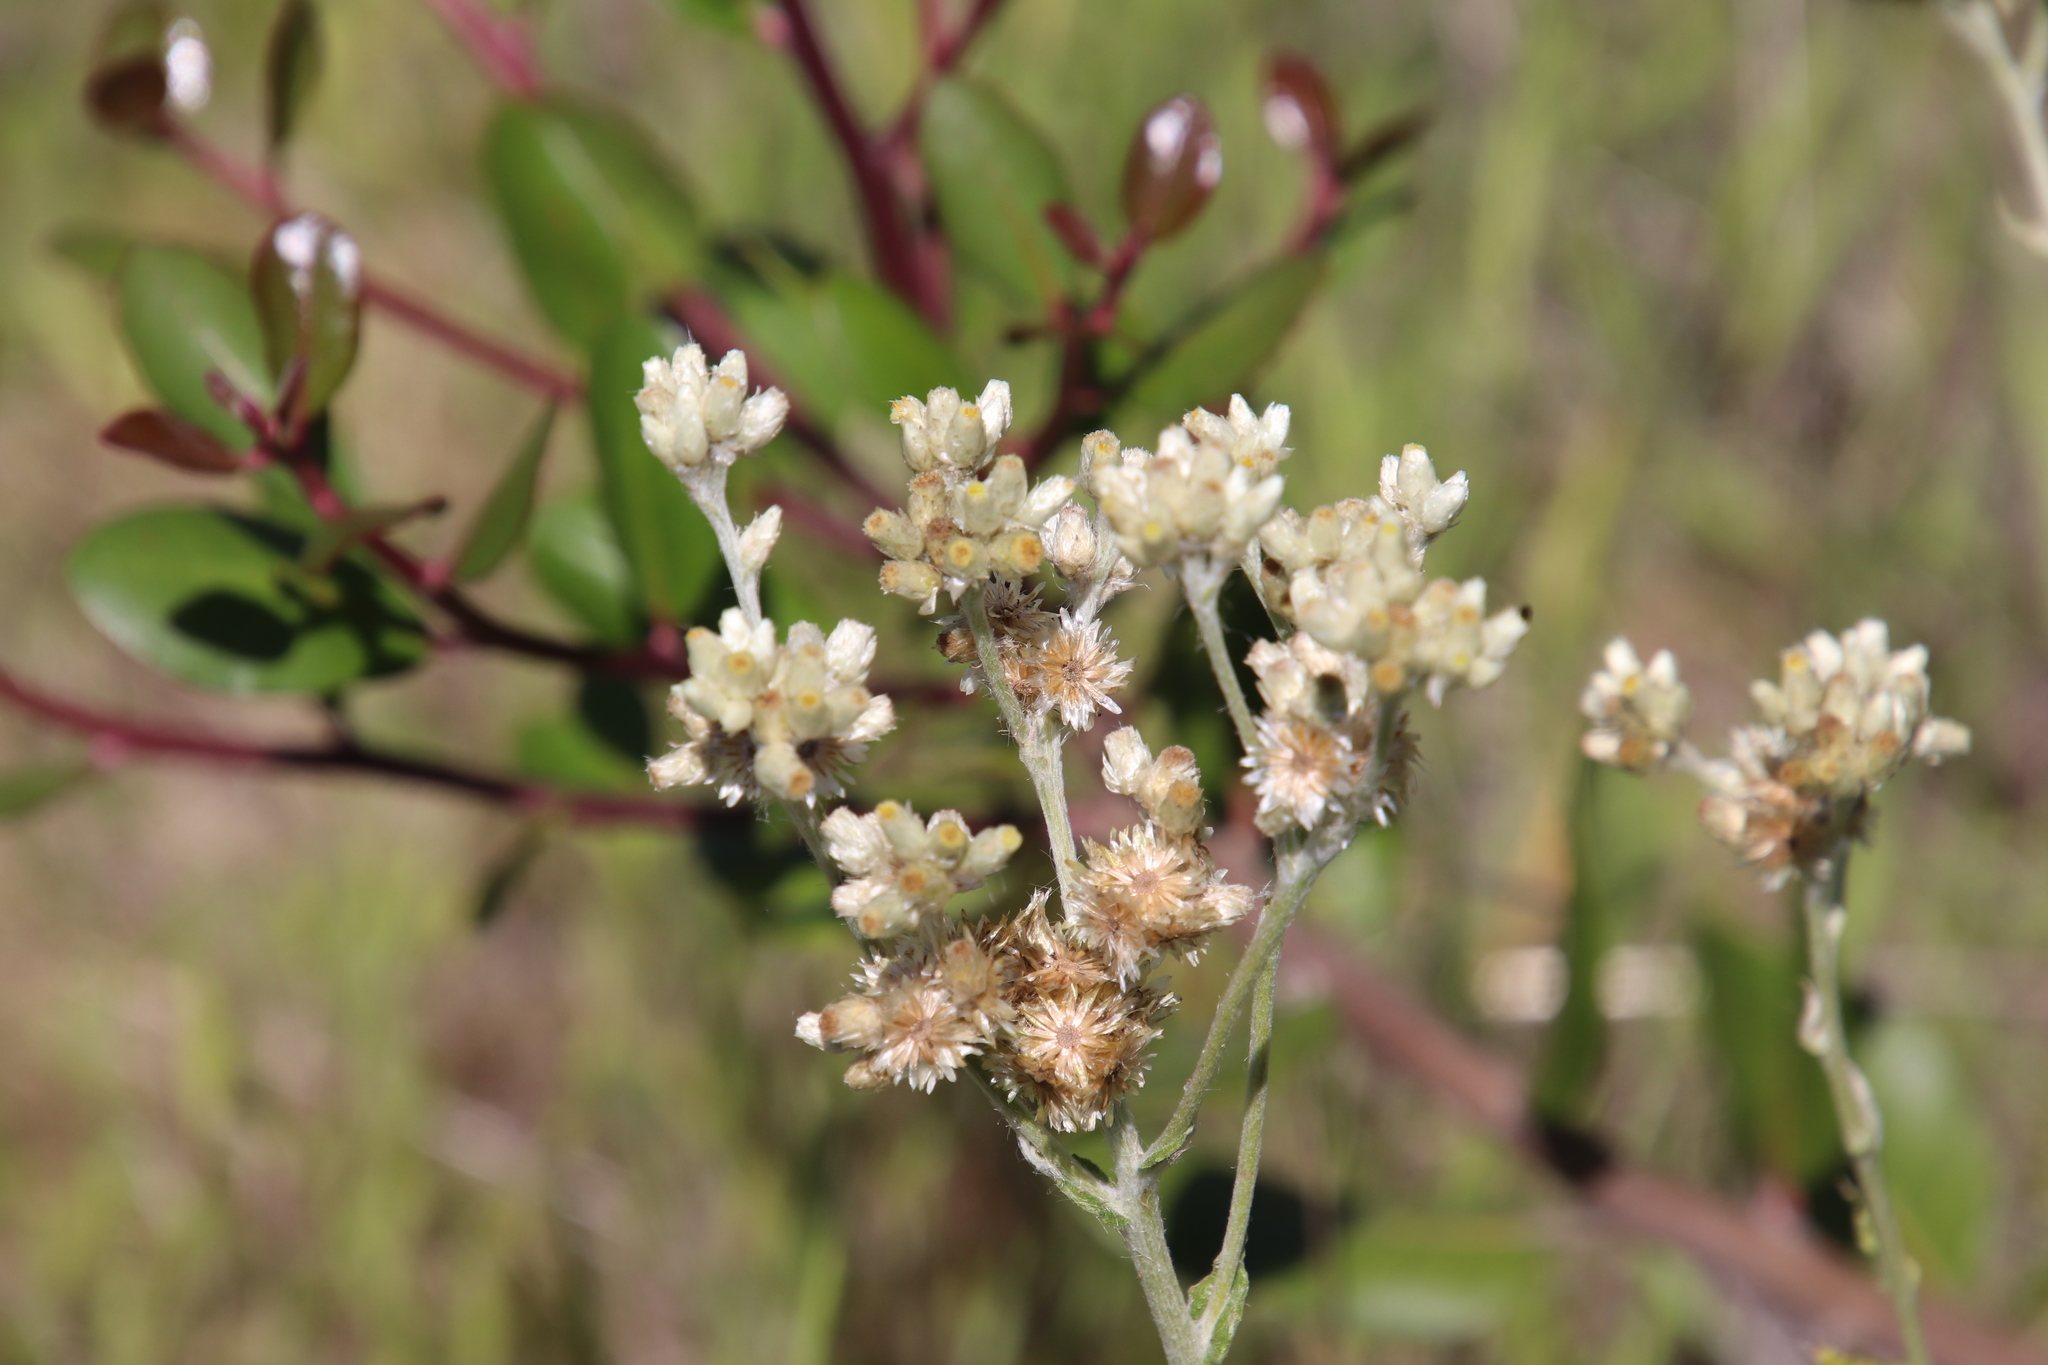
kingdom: Plantae
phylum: Tracheophyta
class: Magnoliopsida
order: Asterales
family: Asteraceae
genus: Pseudognaphalium
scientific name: Pseudognaphalium biolettii
